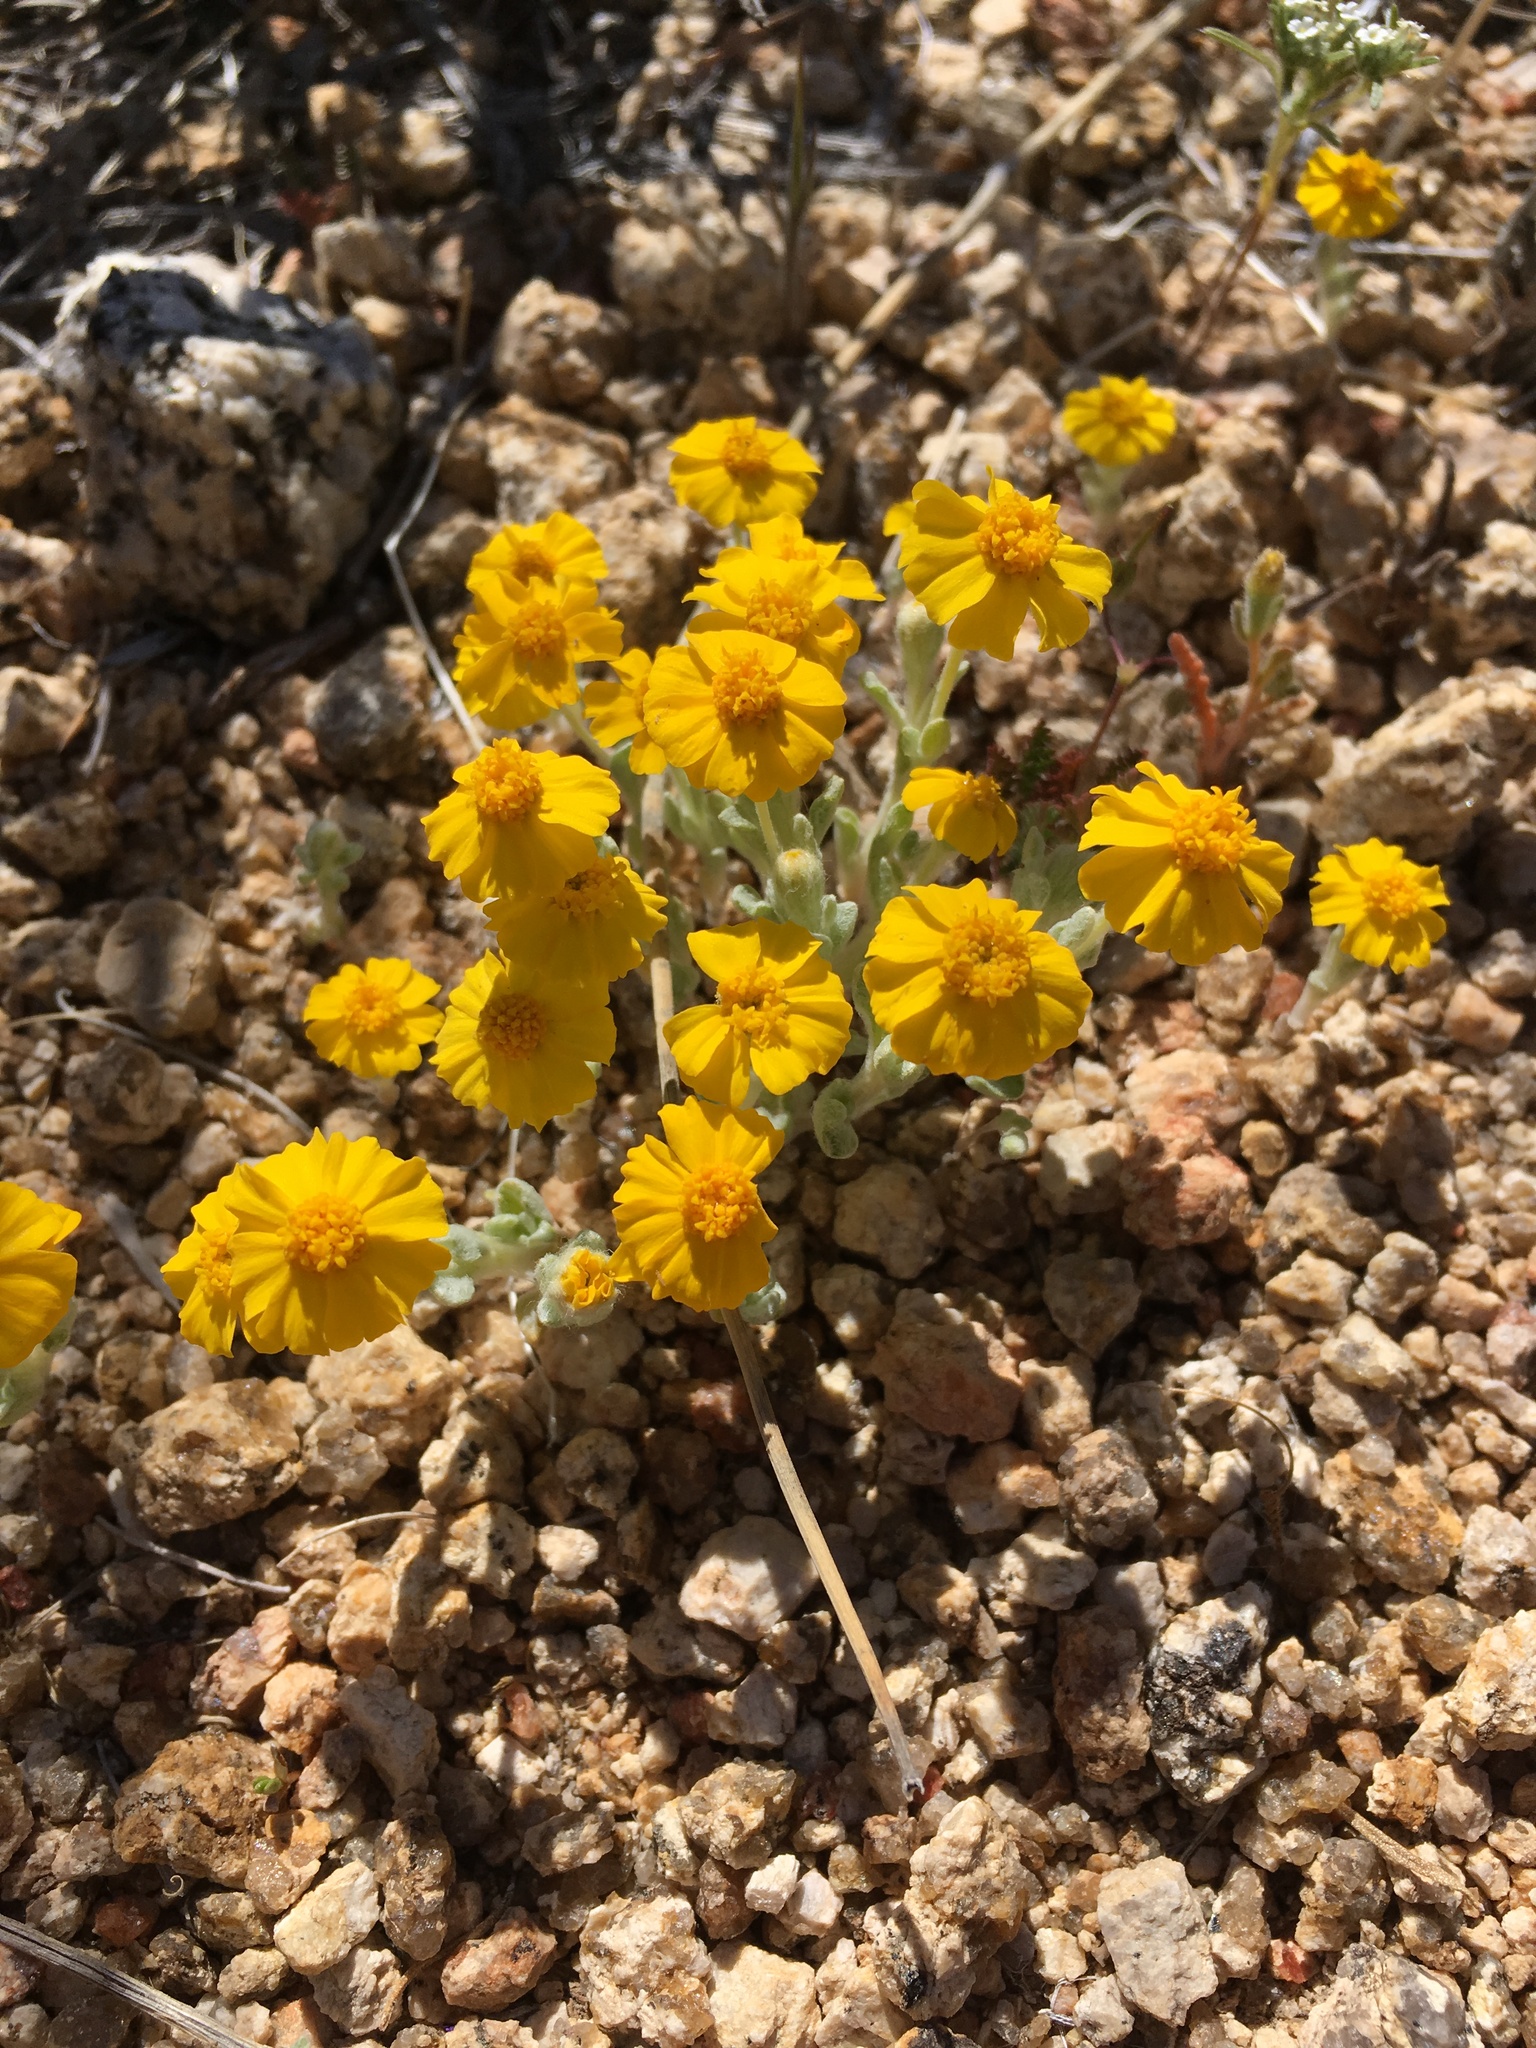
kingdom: Plantae
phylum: Tracheophyta
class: Magnoliopsida
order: Asterales
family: Asteraceae
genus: Eriophyllum
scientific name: Eriophyllum wallacei
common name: Wallace's woolly daisy
